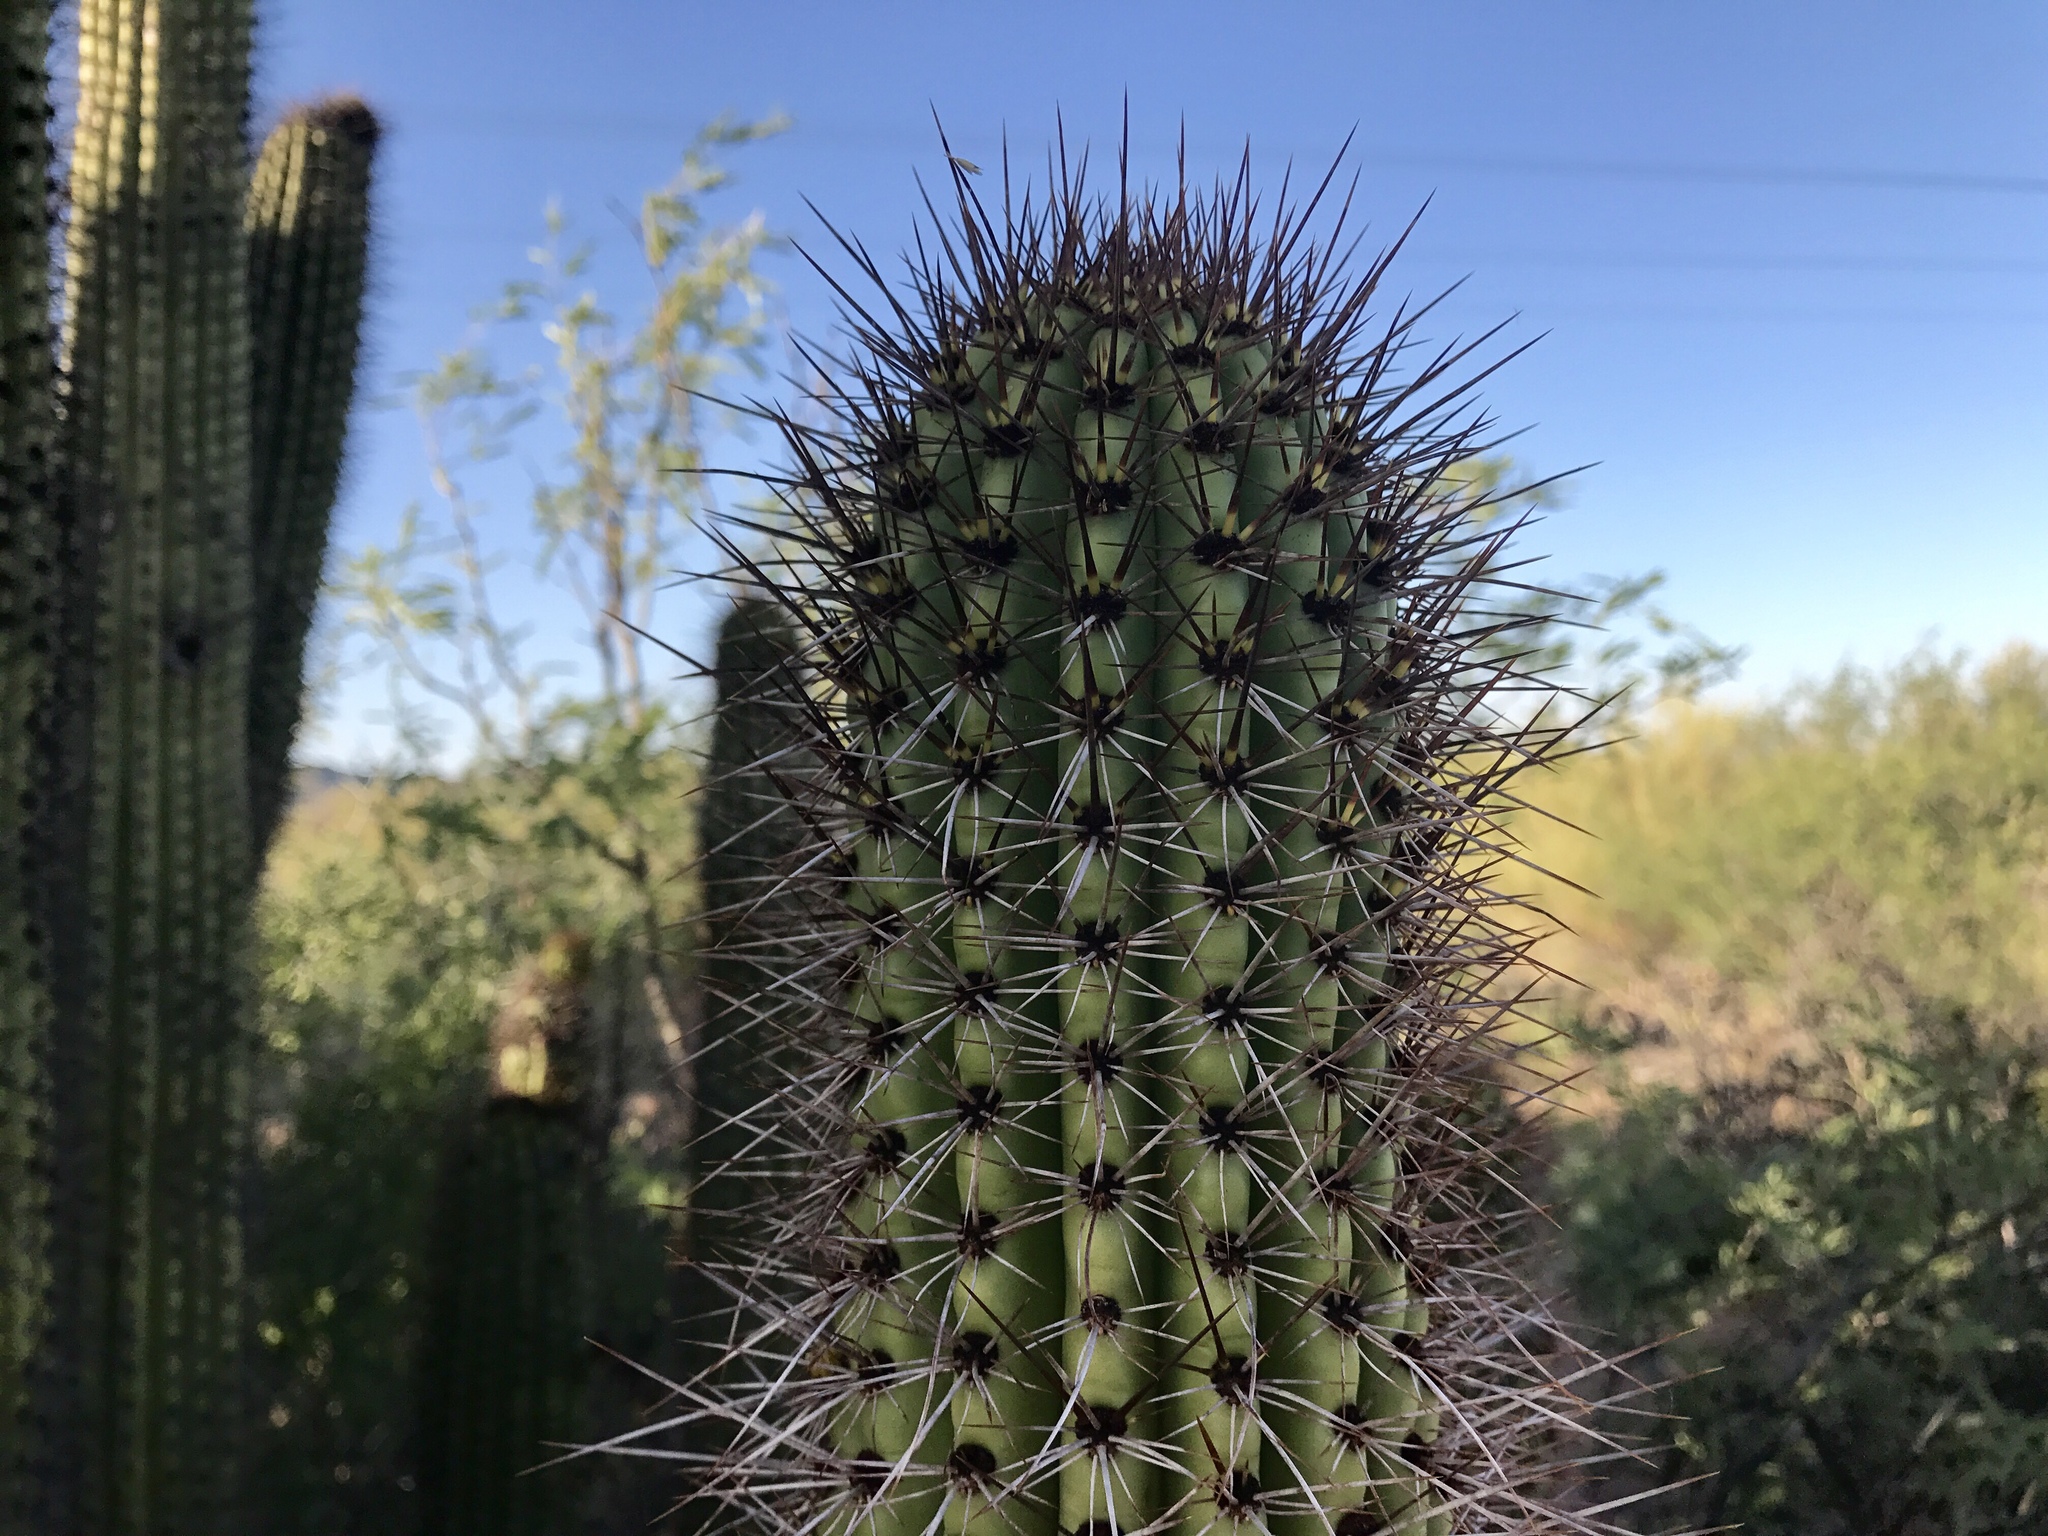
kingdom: Plantae
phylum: Tracheophyta
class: Magnoliopsida
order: Caryophyllales
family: Cactaceae
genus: Stenocereus
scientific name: Stenocereus thurberi
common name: Organ pipe cactus
